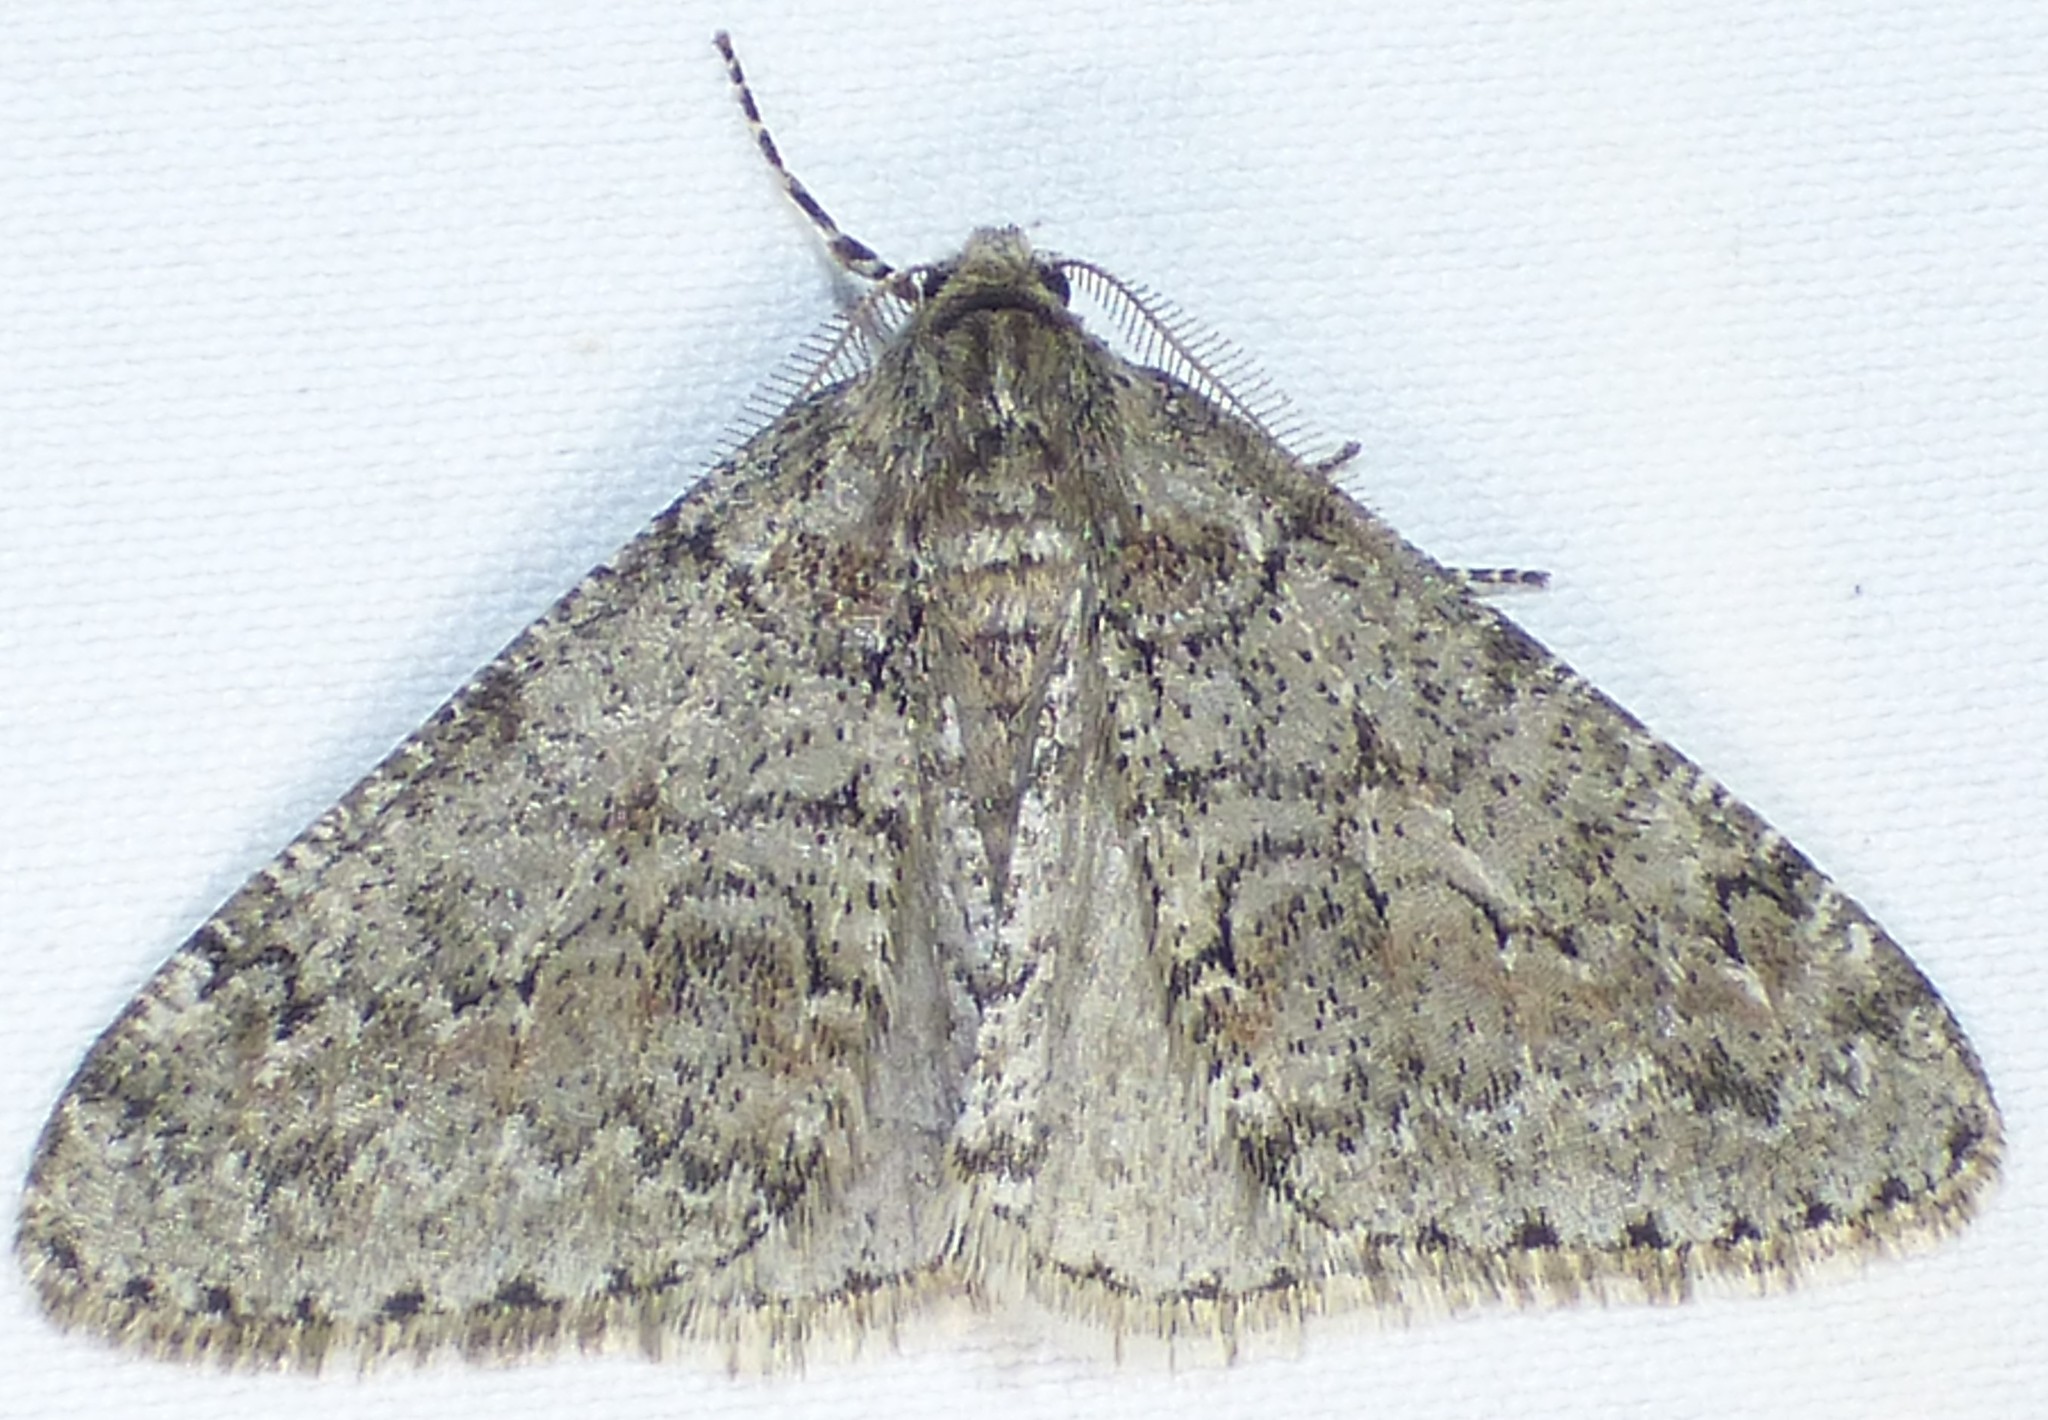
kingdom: Animalia
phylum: Arthropoda
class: Insecta
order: Lepidoptera
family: Geometridae
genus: Phigalia
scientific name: Phigalia denticulata
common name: Toothed phigalia
